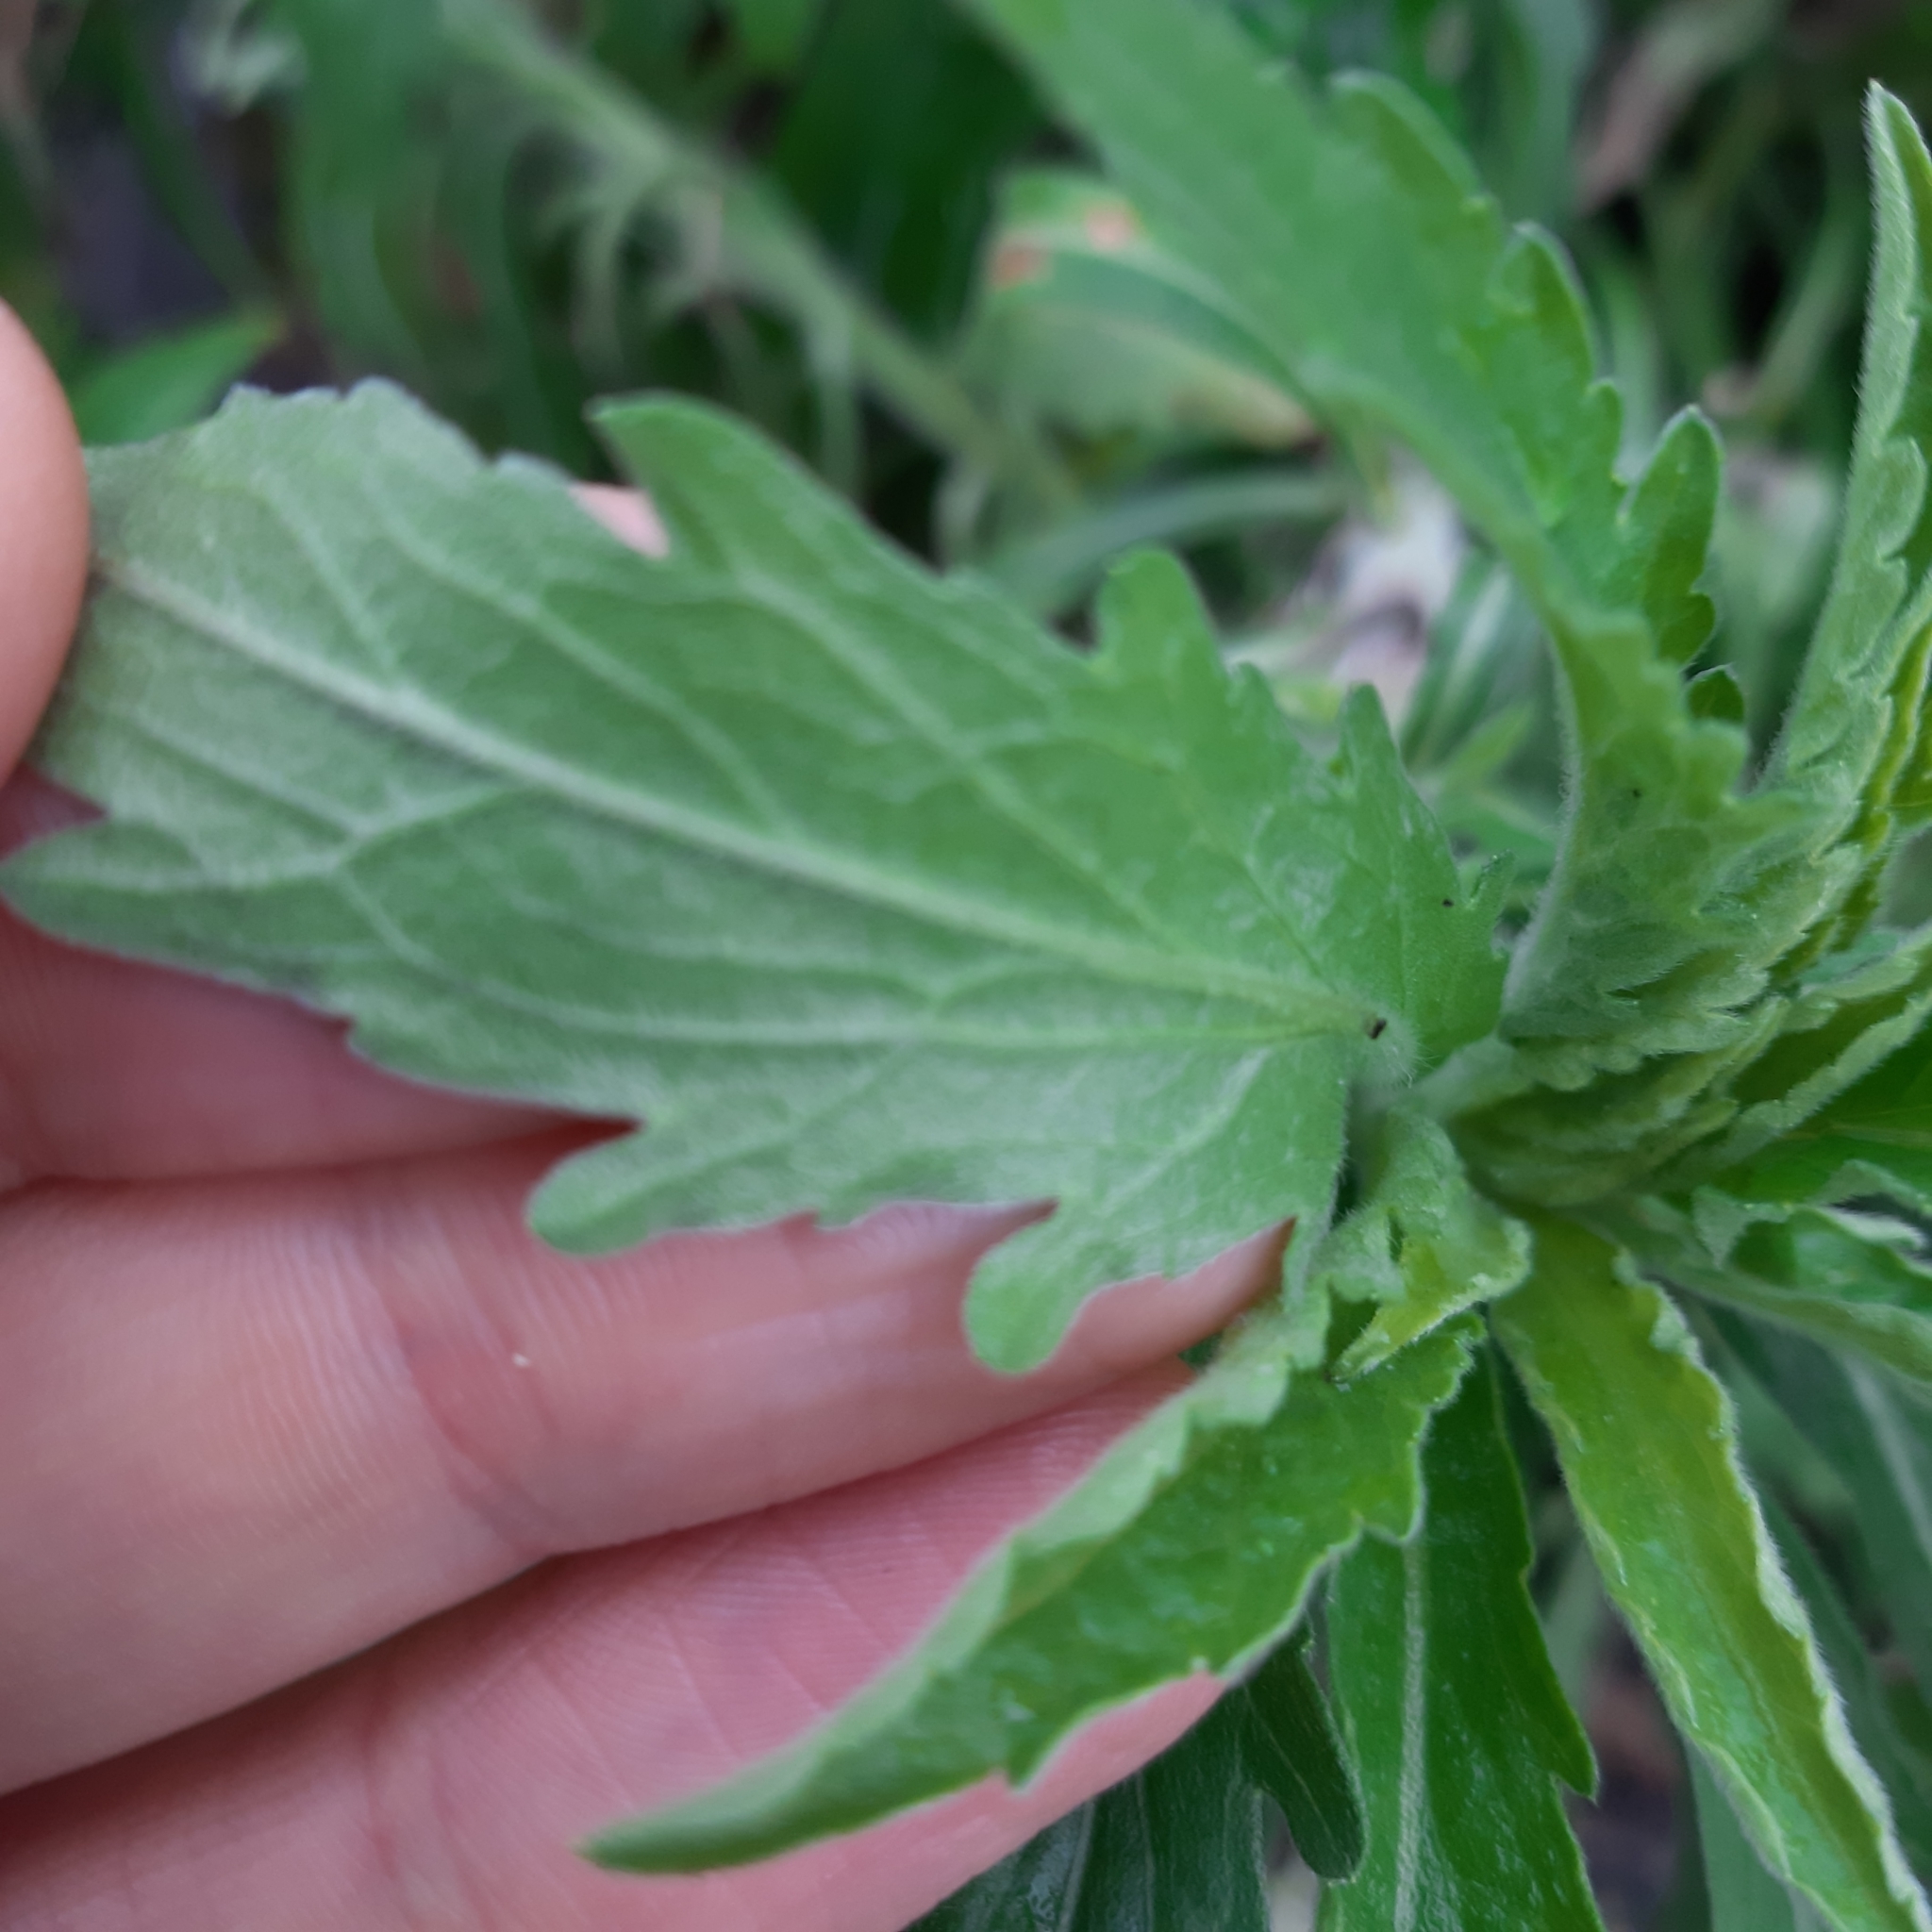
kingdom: Plantae
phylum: Tracheophyta
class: Magnoliopsida
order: Asterales
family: Asteraceae
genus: Erigeron
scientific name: Erigeron sumatrensis
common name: Daisy
